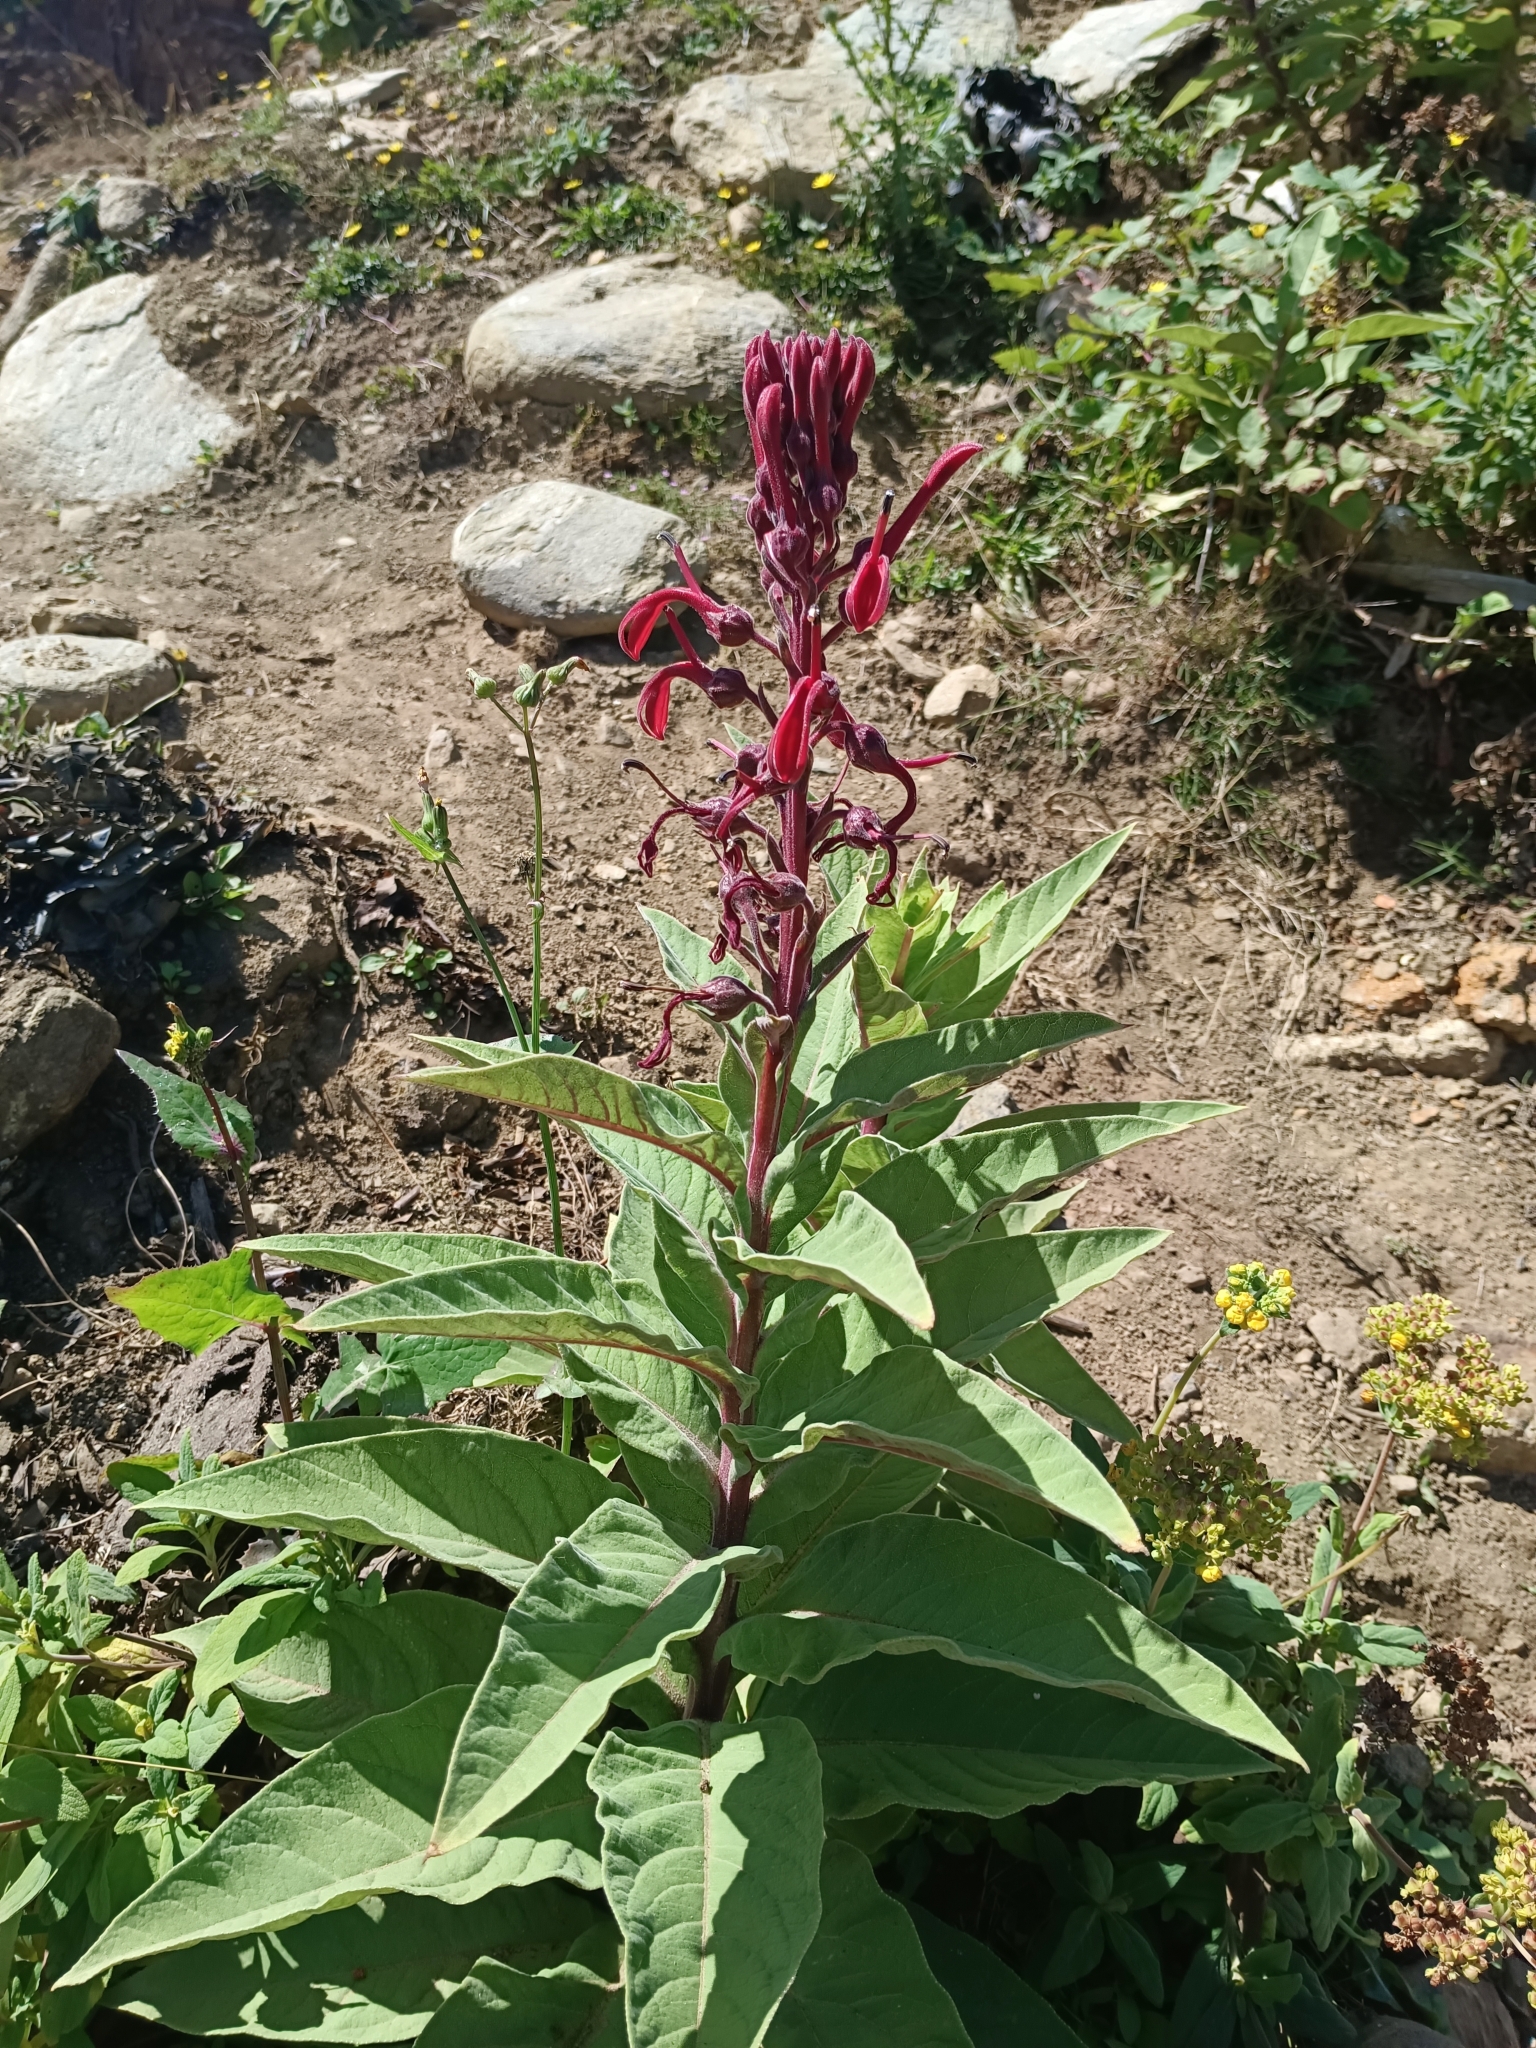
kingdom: Plantae
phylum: Tracheophyta
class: Magnoliopsida
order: Asterales
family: Campanulaceae
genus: Lobelia
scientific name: Lobelia tupa
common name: Devil's-tobacco
